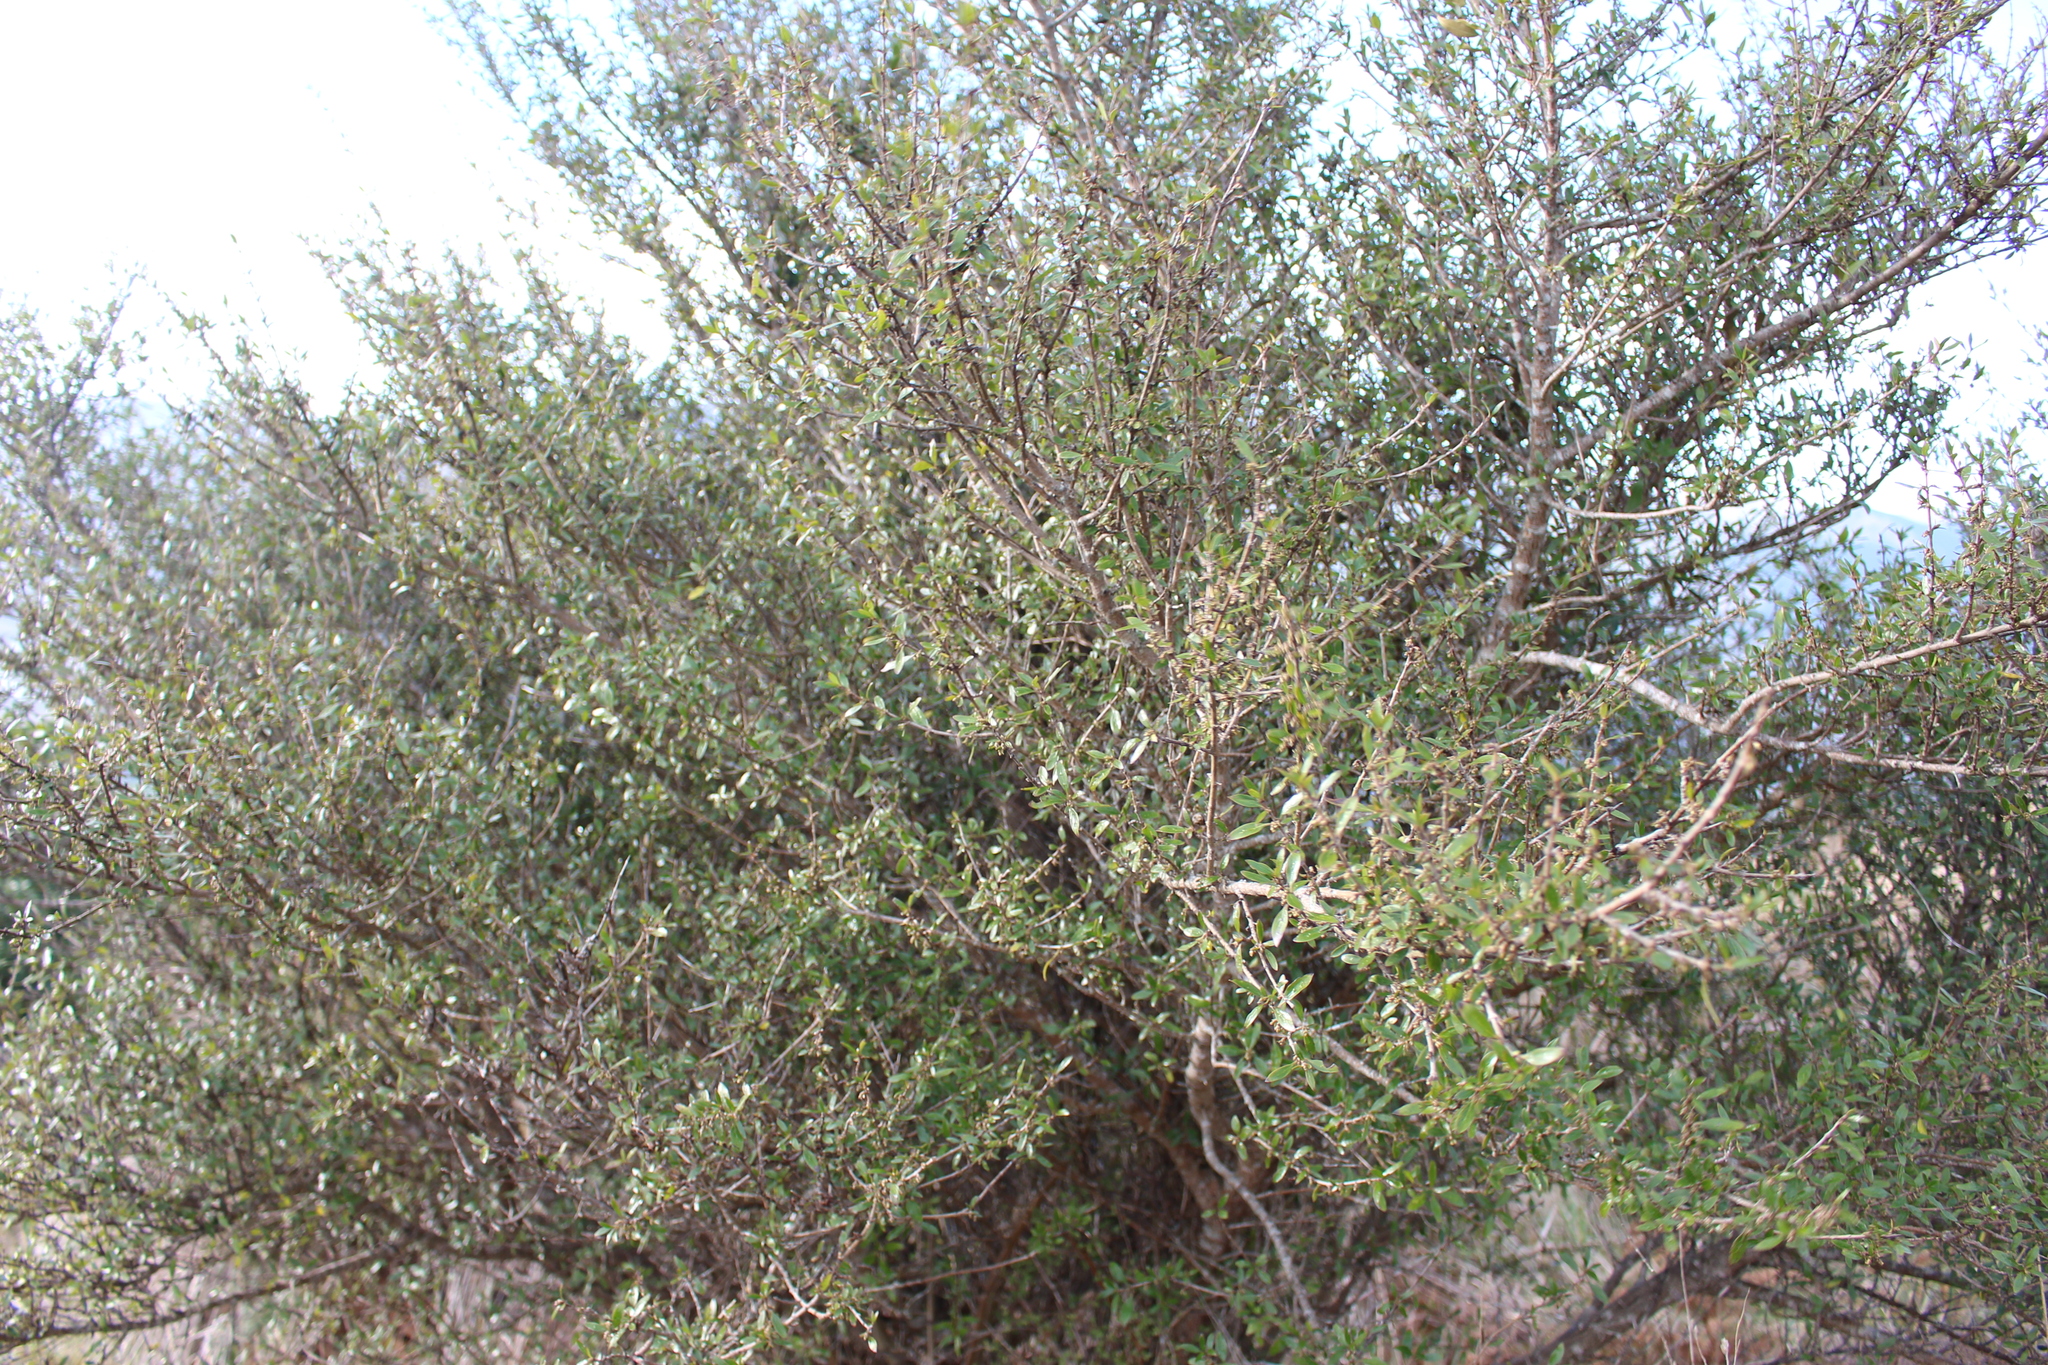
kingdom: Plantae
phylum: Tracheophyta
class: Magnoliopsida
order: Gentianales
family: Rubiaceae
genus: Coprosma
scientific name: Coprosma cunninghamii
